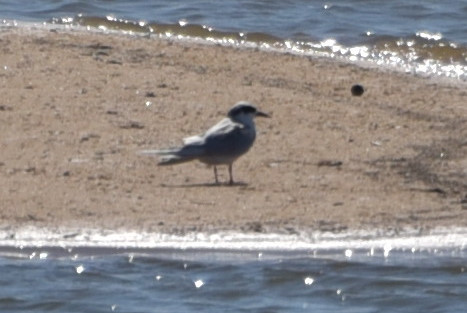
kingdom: Animalia
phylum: Chordata
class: Aves
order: Charadriiformes
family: Laridae
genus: Sterna
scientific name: Sterna forsteri
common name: Forster's tern
